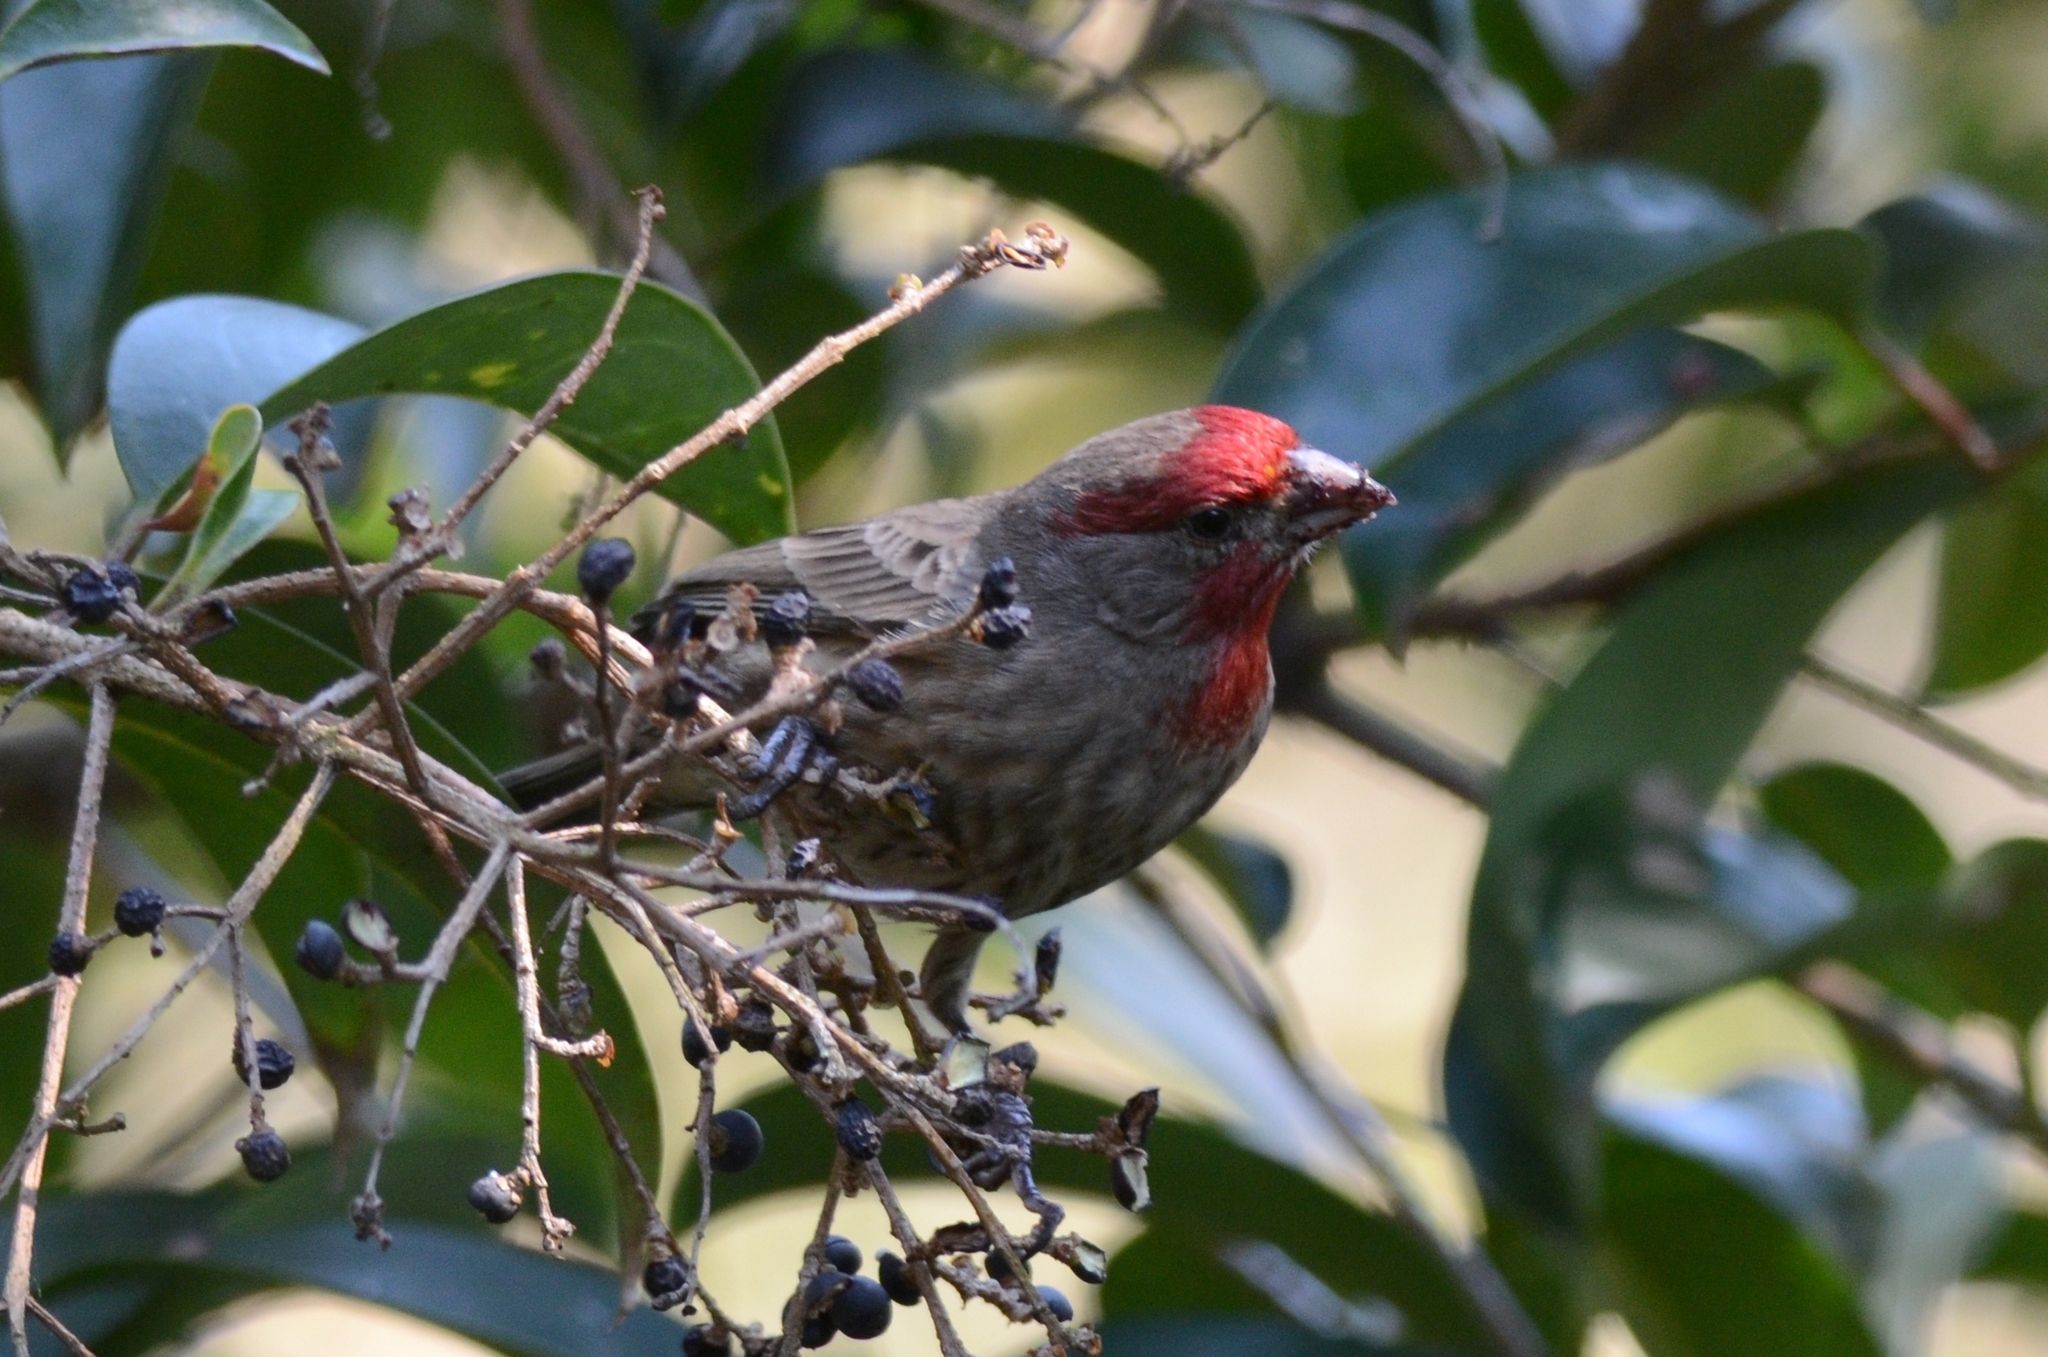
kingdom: Animalia
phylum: Chordata
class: Aves
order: Passeriformes
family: Fringillidae
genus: Haemorhous
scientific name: Haemorhous mexicanus
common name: House finch
